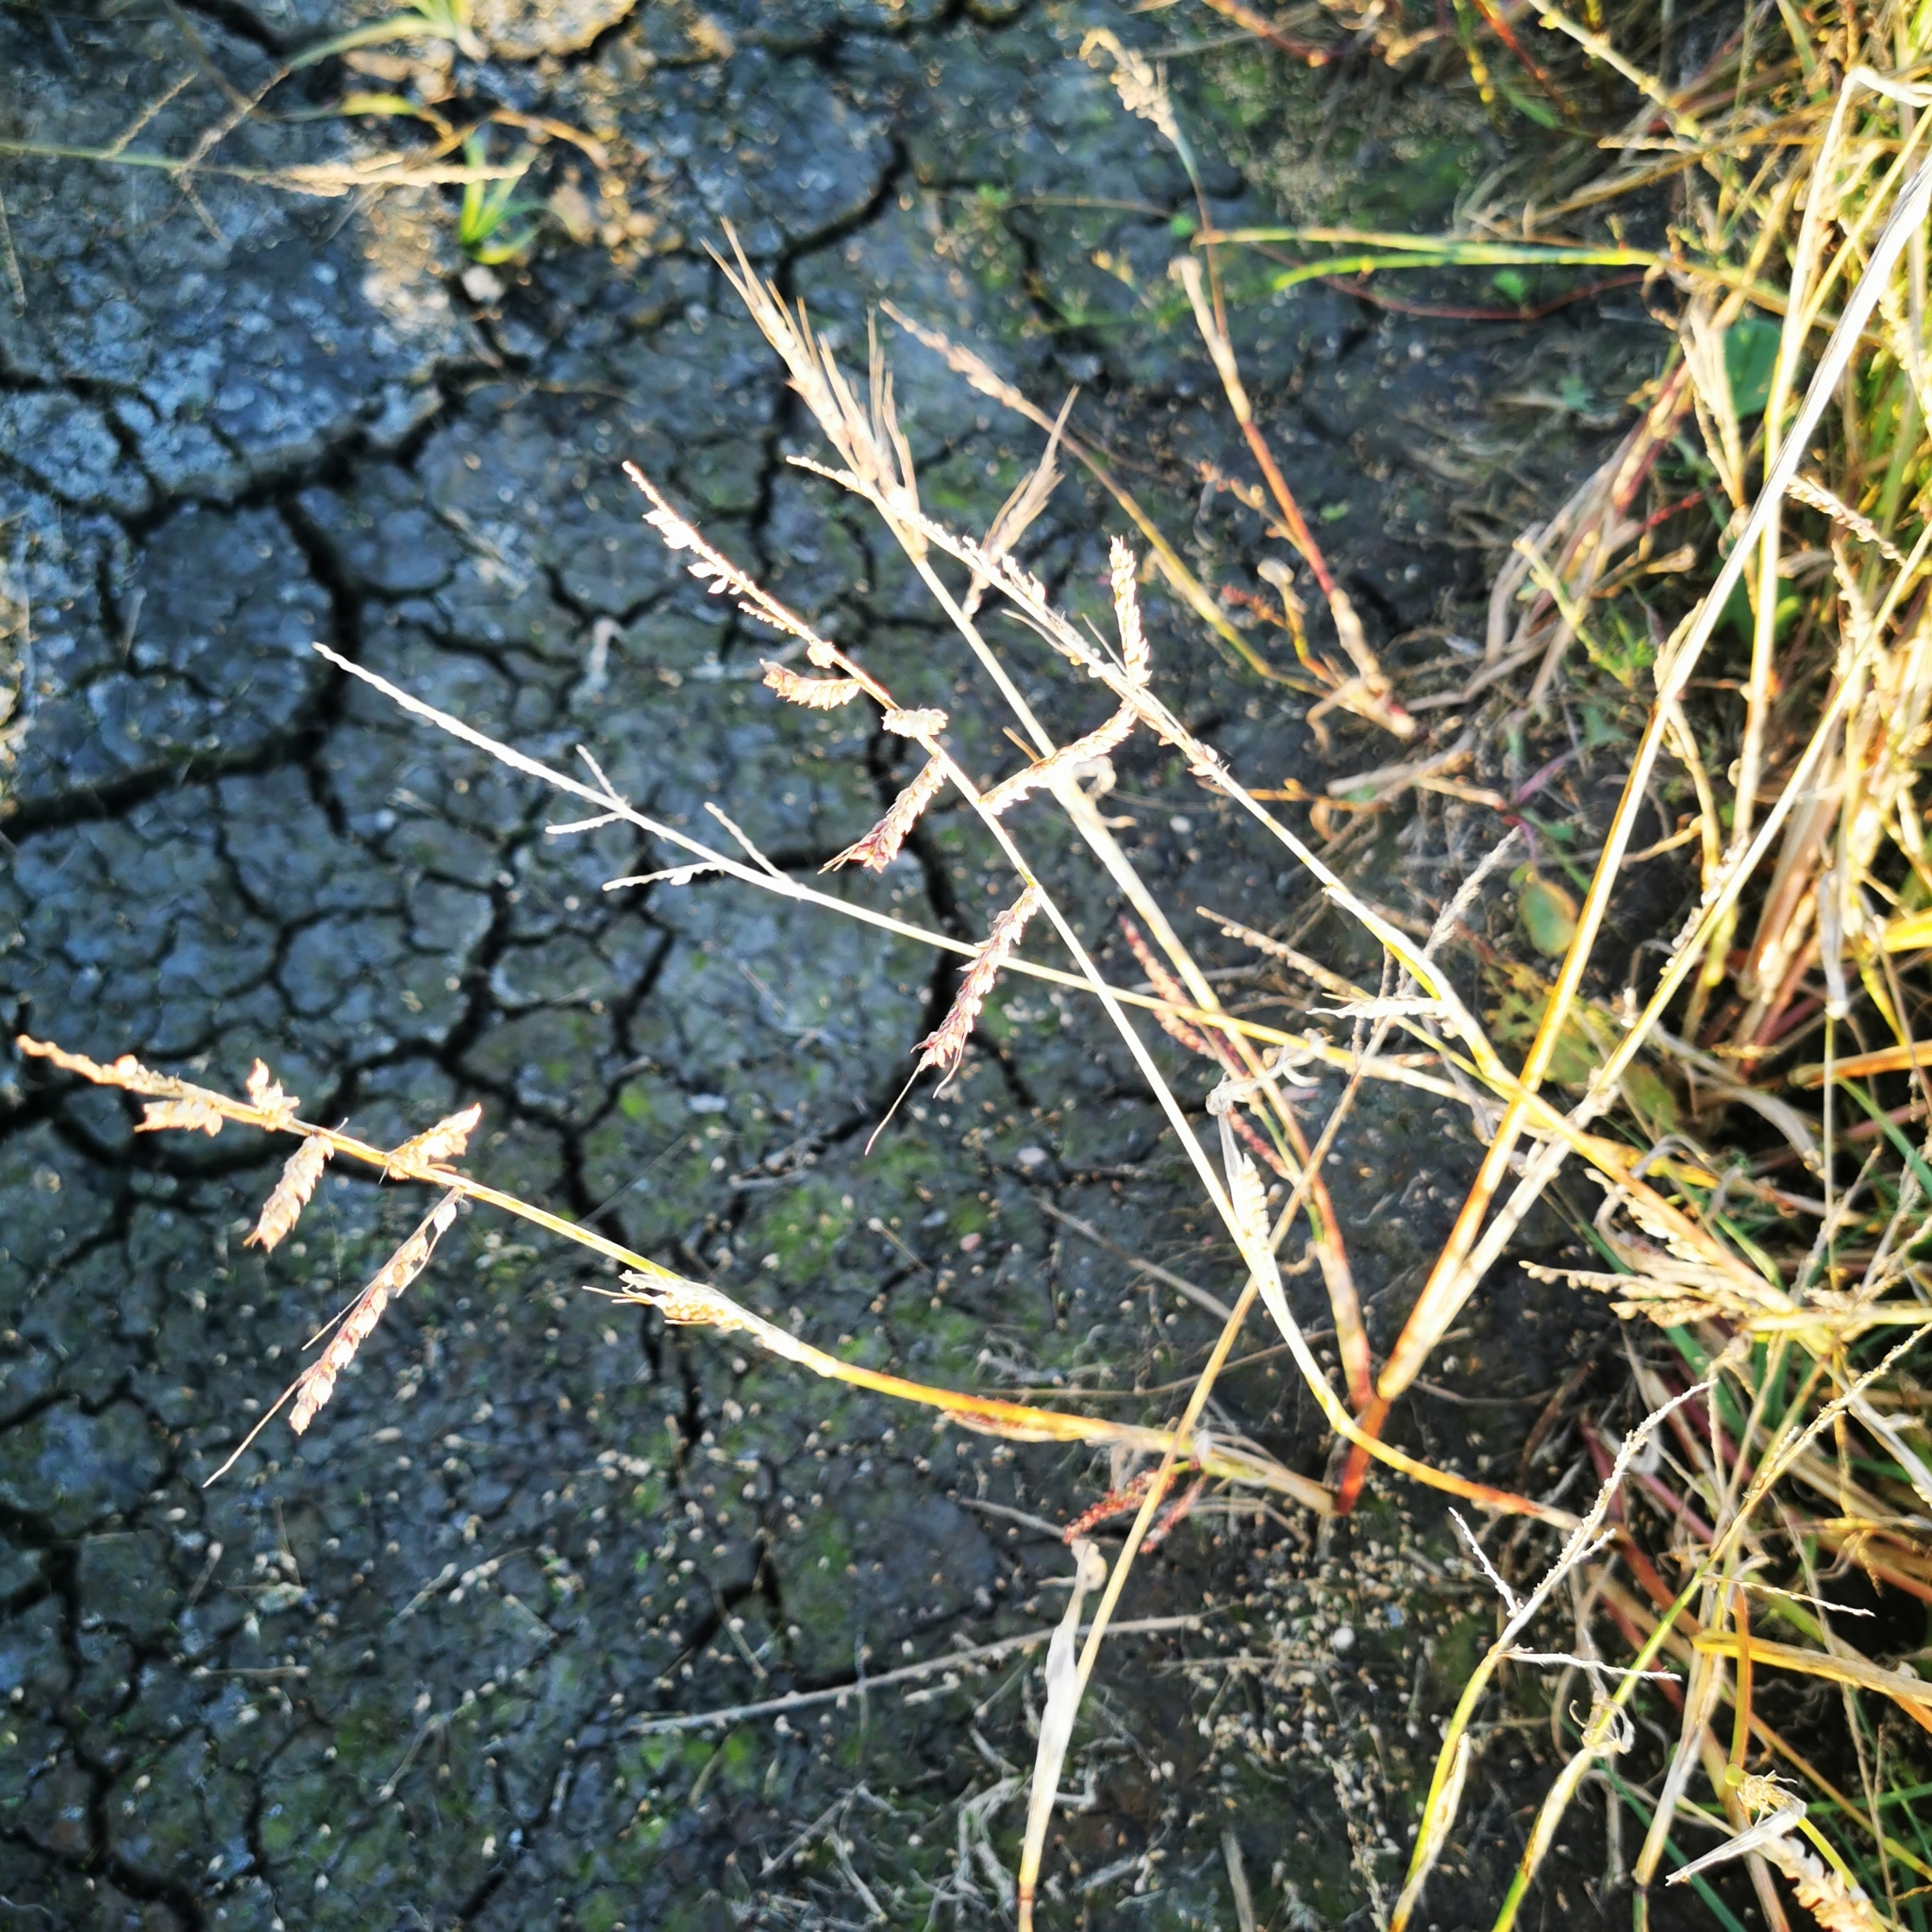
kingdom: Plantae
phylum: Tracheophyta
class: Liliopsida
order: Poales
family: Poaceae
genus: Echinochloa
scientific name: Echinochloa crus-galli
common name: Cockspur
